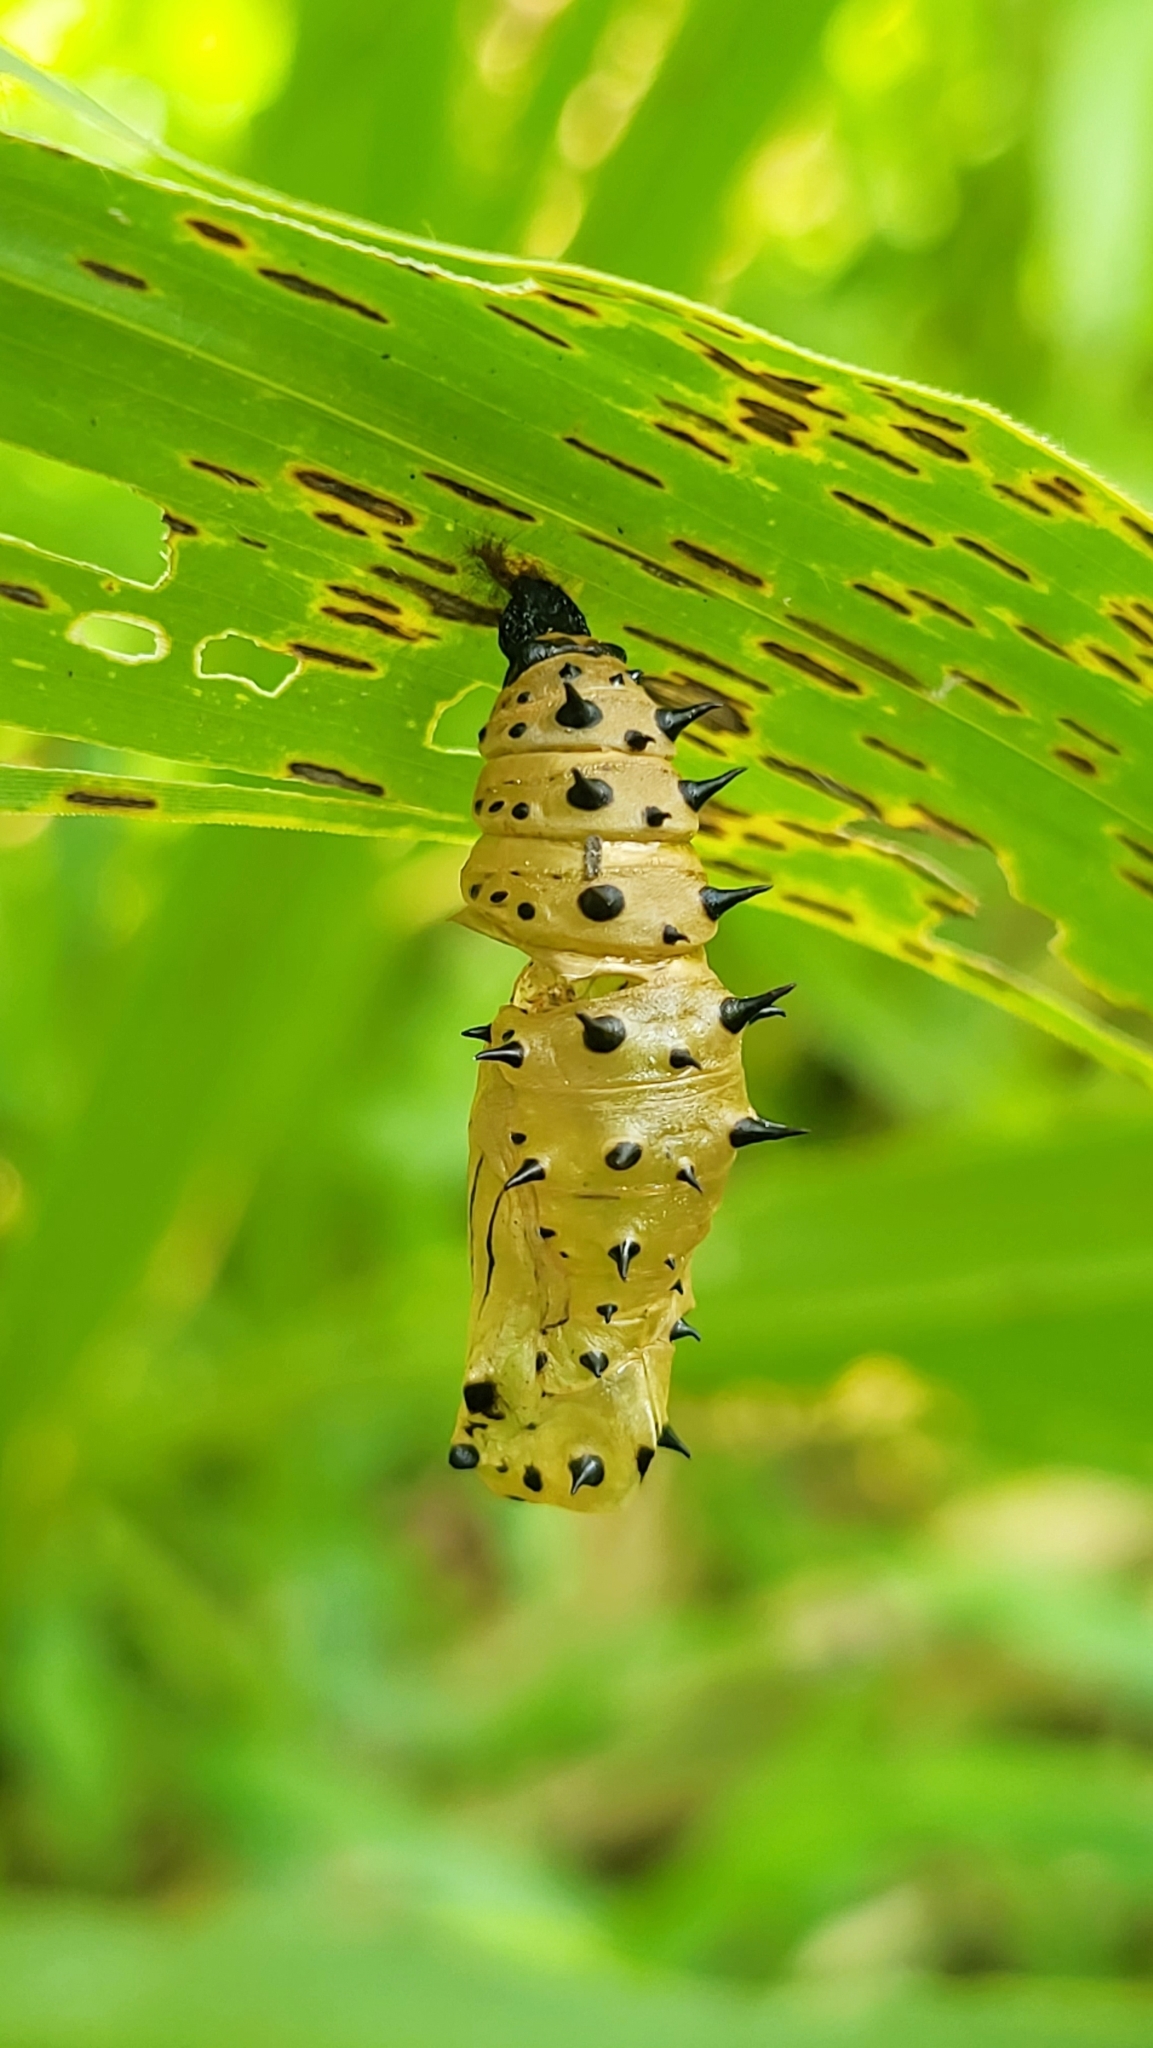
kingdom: Animalia
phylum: Arthropoda
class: Insecta
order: Lepidoptera
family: Nymphalidae
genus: Hypolimnas
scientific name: Hypolimnas anomala
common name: Malayan eggfly
